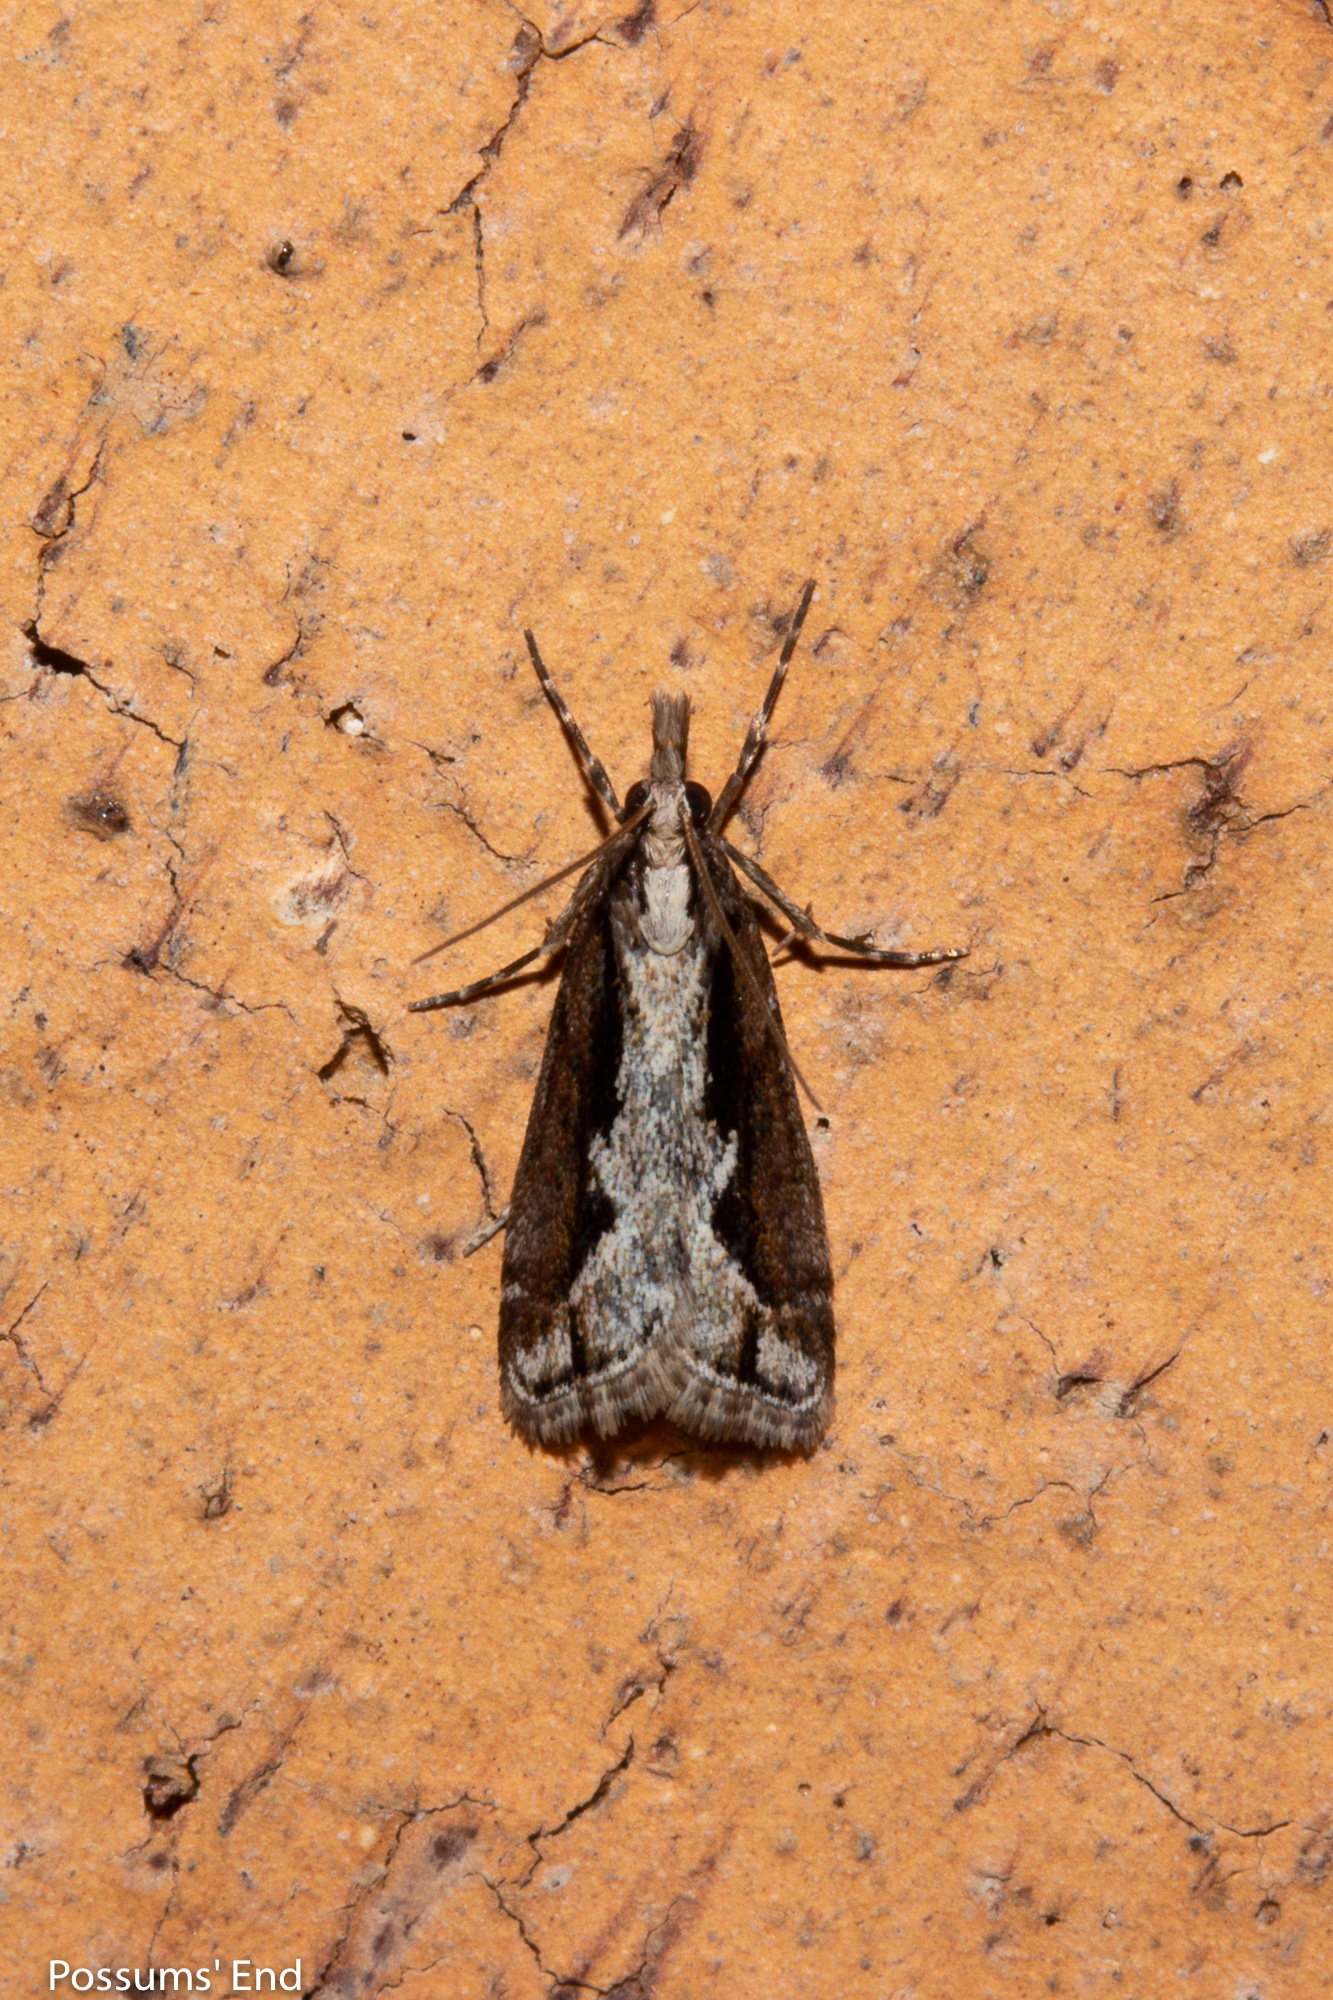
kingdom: Animalia
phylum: Arthropoda
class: Insecta
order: Lepidoptera
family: Crambidae
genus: Eudonia
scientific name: Eudonia steropaea
